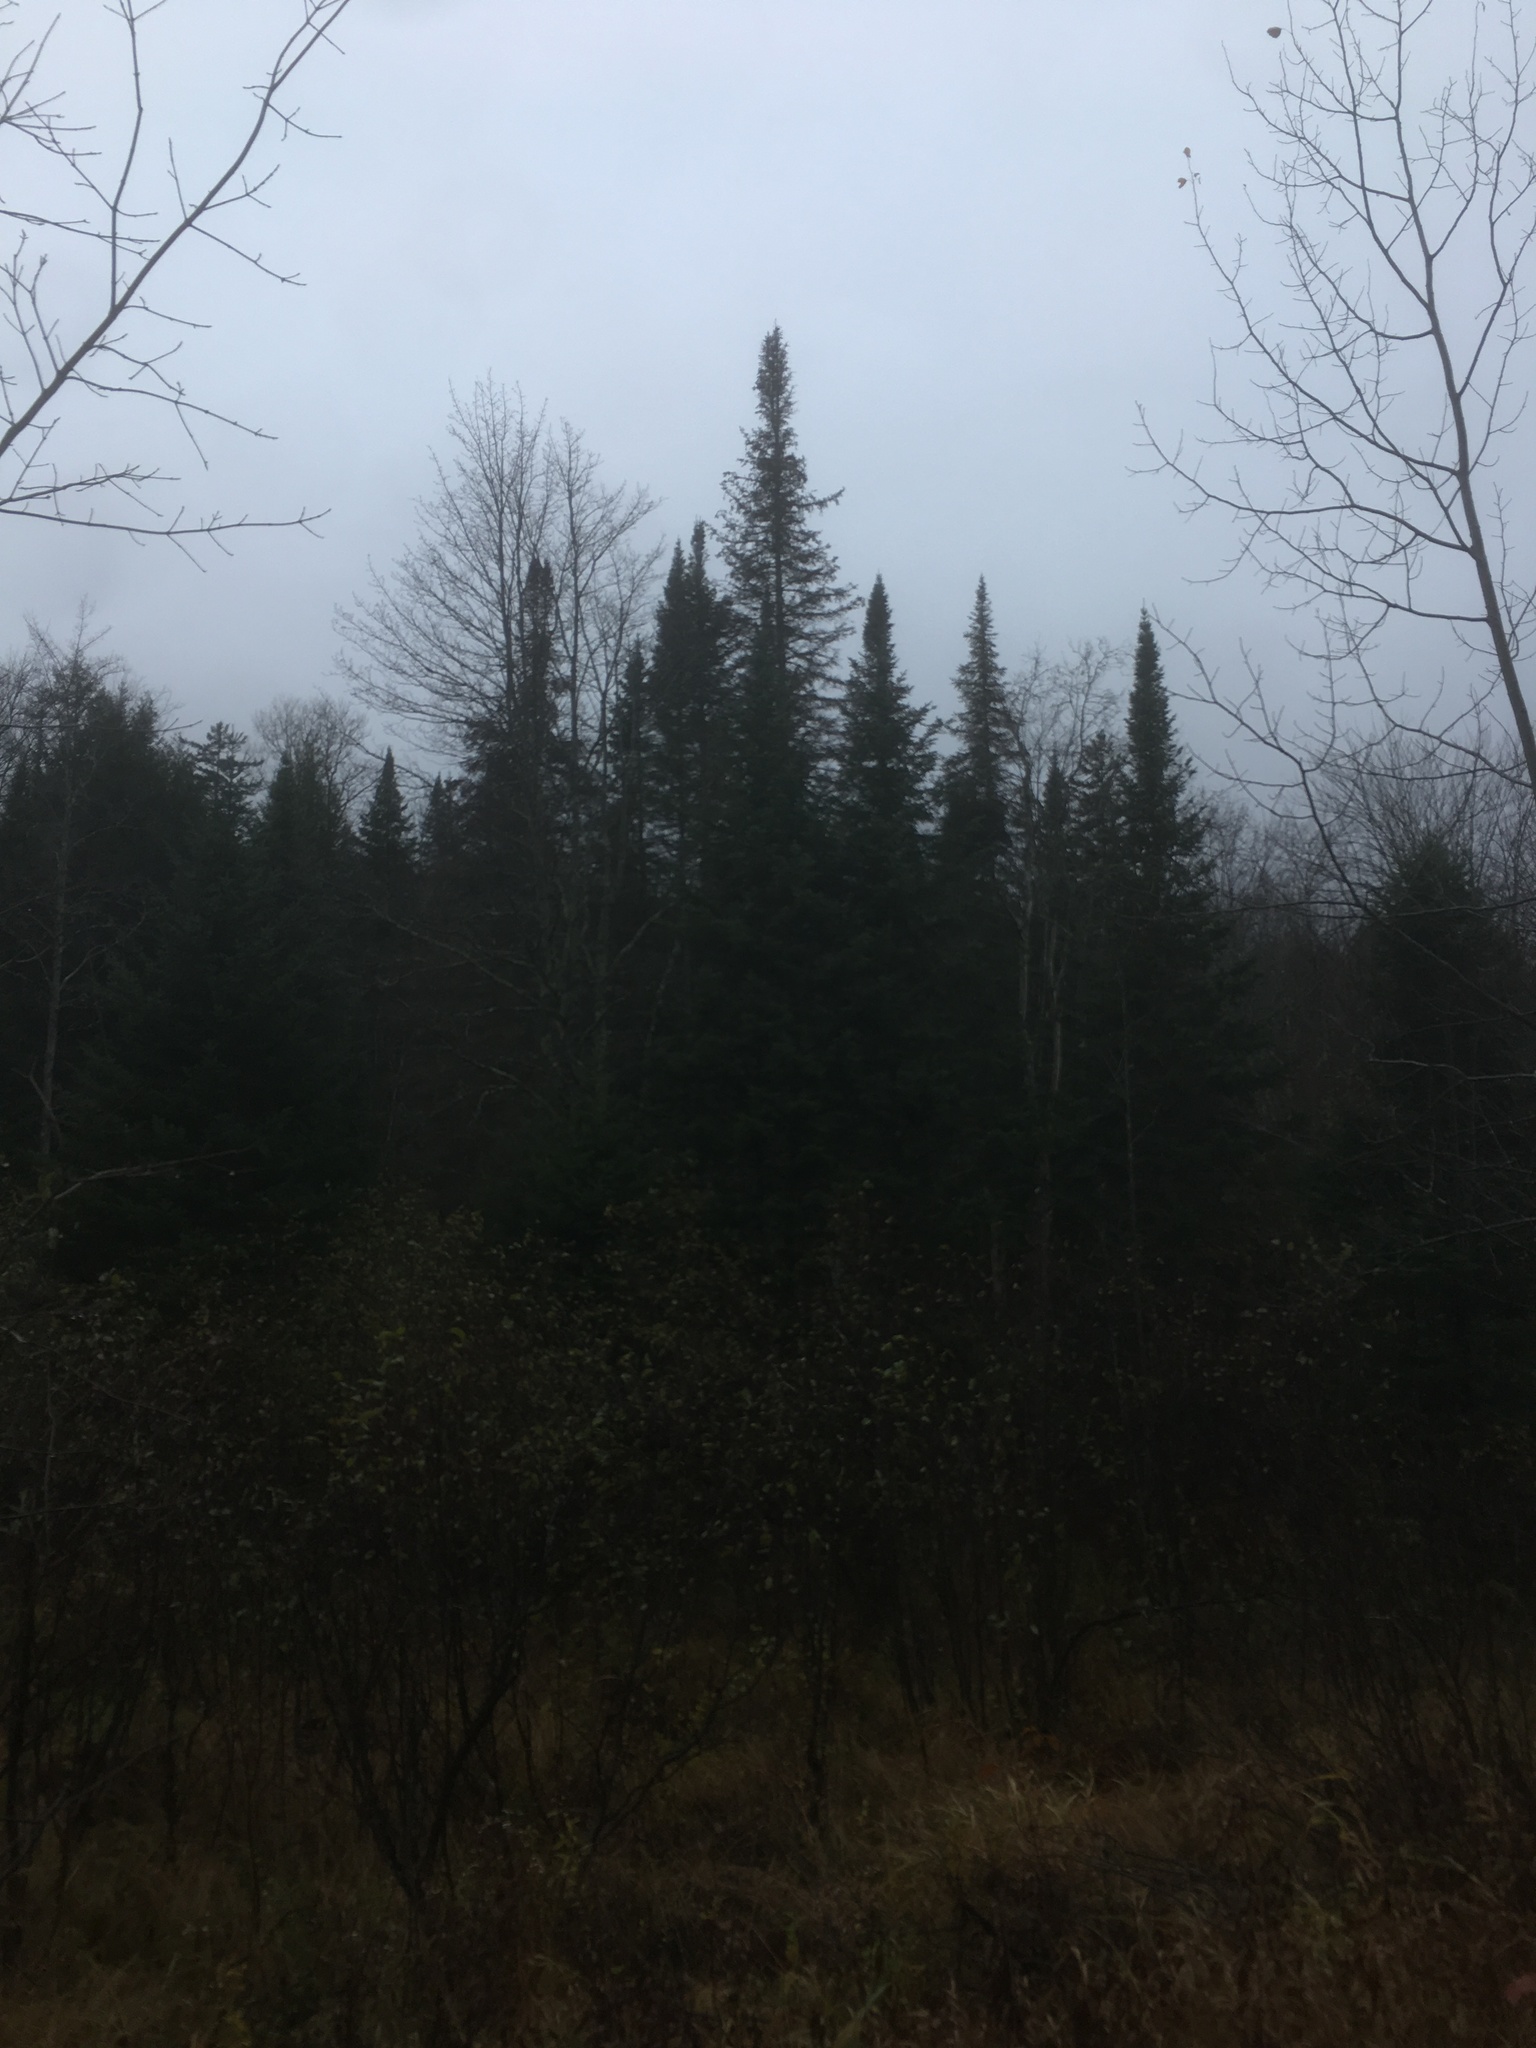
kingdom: Plantae
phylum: Tracheophyta
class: Pinopsida
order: Pinales
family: Pinaceae
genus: Abies
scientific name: Abies balsamea
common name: Balsam fir
